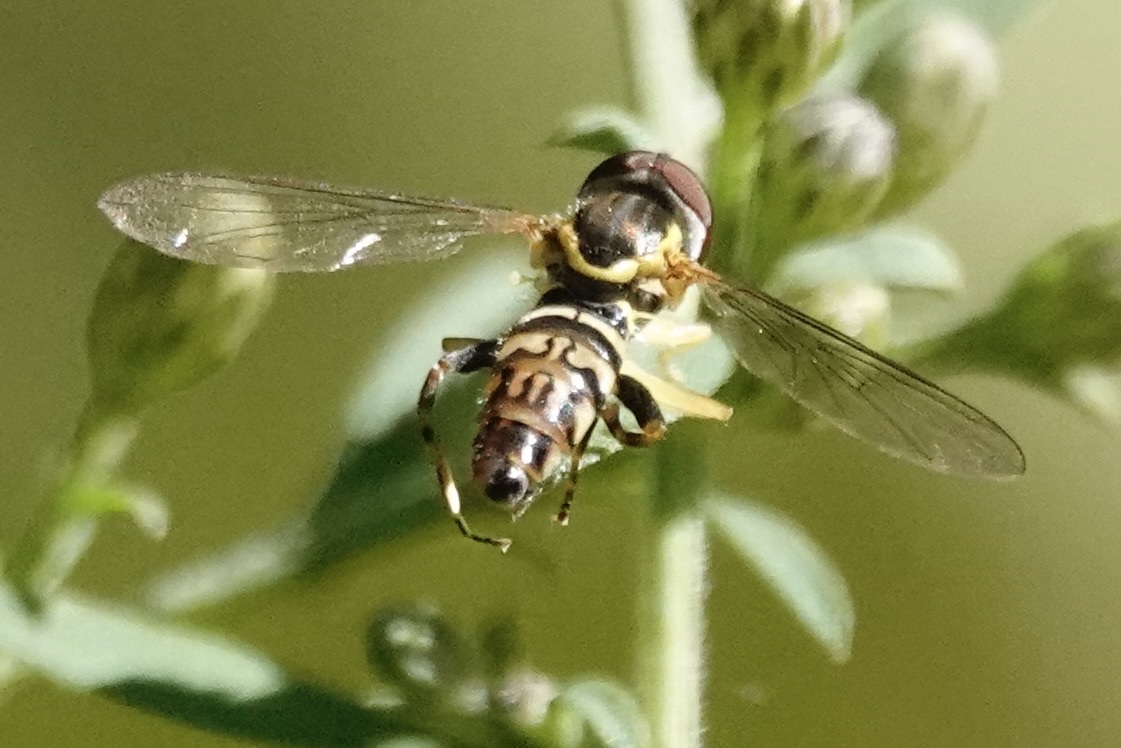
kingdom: Animalia
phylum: Arthropoda
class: Insecta
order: Diptera
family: Syrphidae
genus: Toxomerus
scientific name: Toxomerus geminatus
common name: Eastern calligrapher
